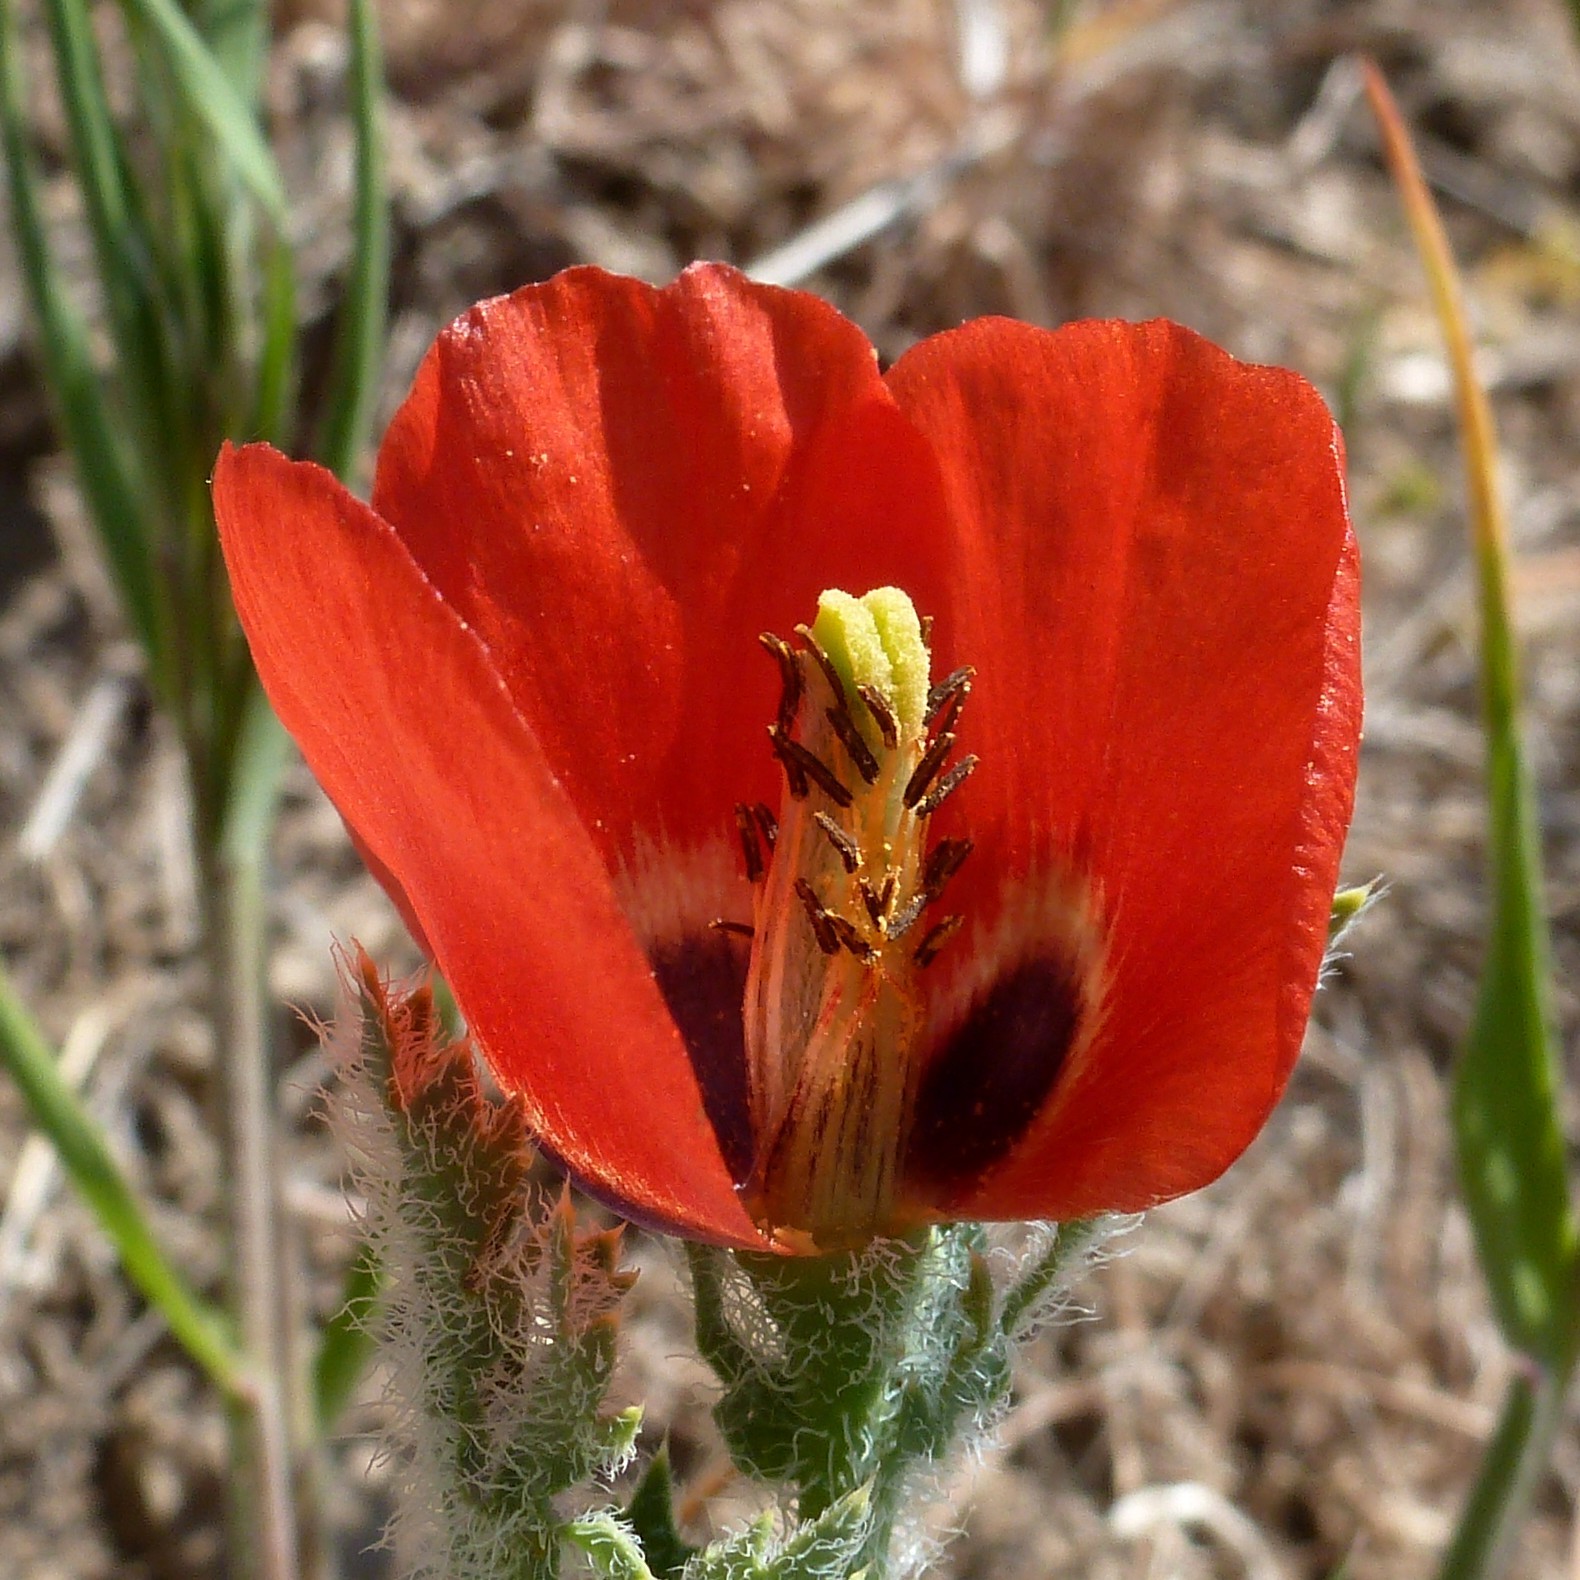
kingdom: Plantae
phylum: Tracheophyta
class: Magnoliopsida
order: Ranunculales
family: Papaveraceae
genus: Glaucium
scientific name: Glaucium corniculatum
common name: Red horned-poppy
